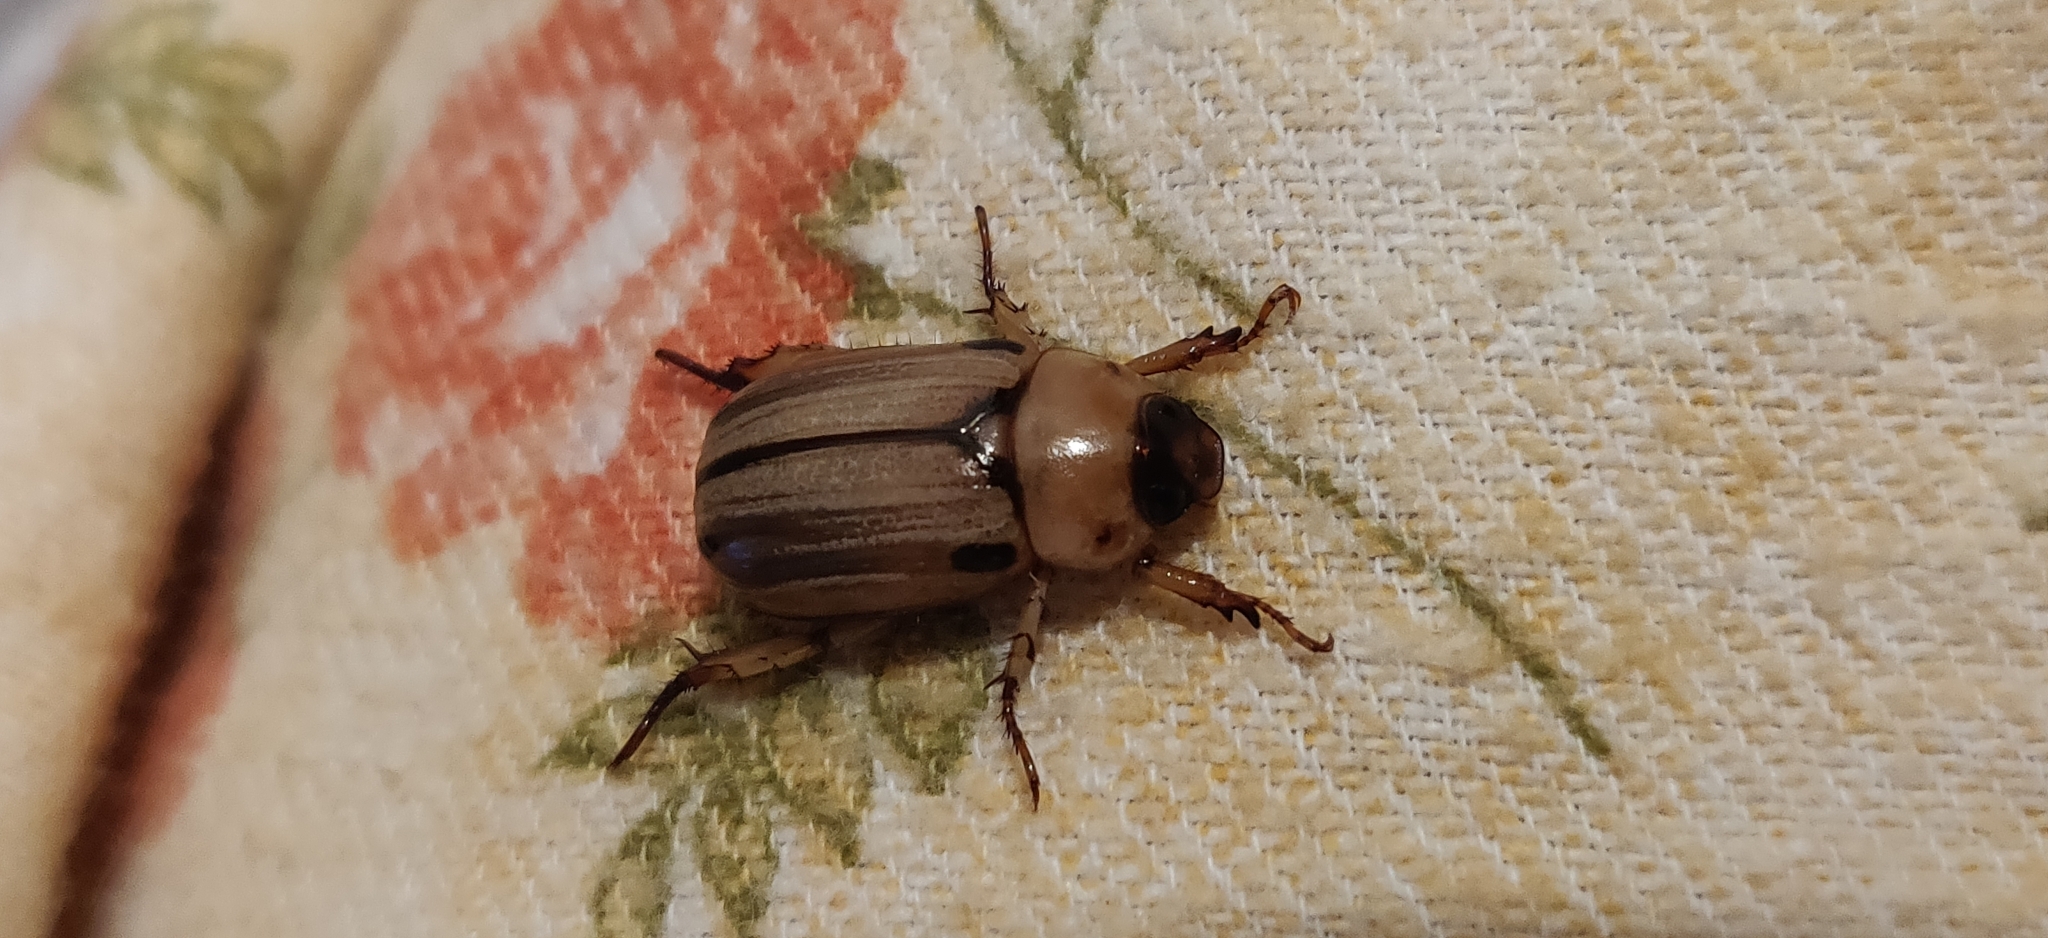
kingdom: Animalia
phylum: Arthropoda
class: Insecta
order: Coleoptera
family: Scarabaeidae
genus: Anomala
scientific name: Anomala pallida
